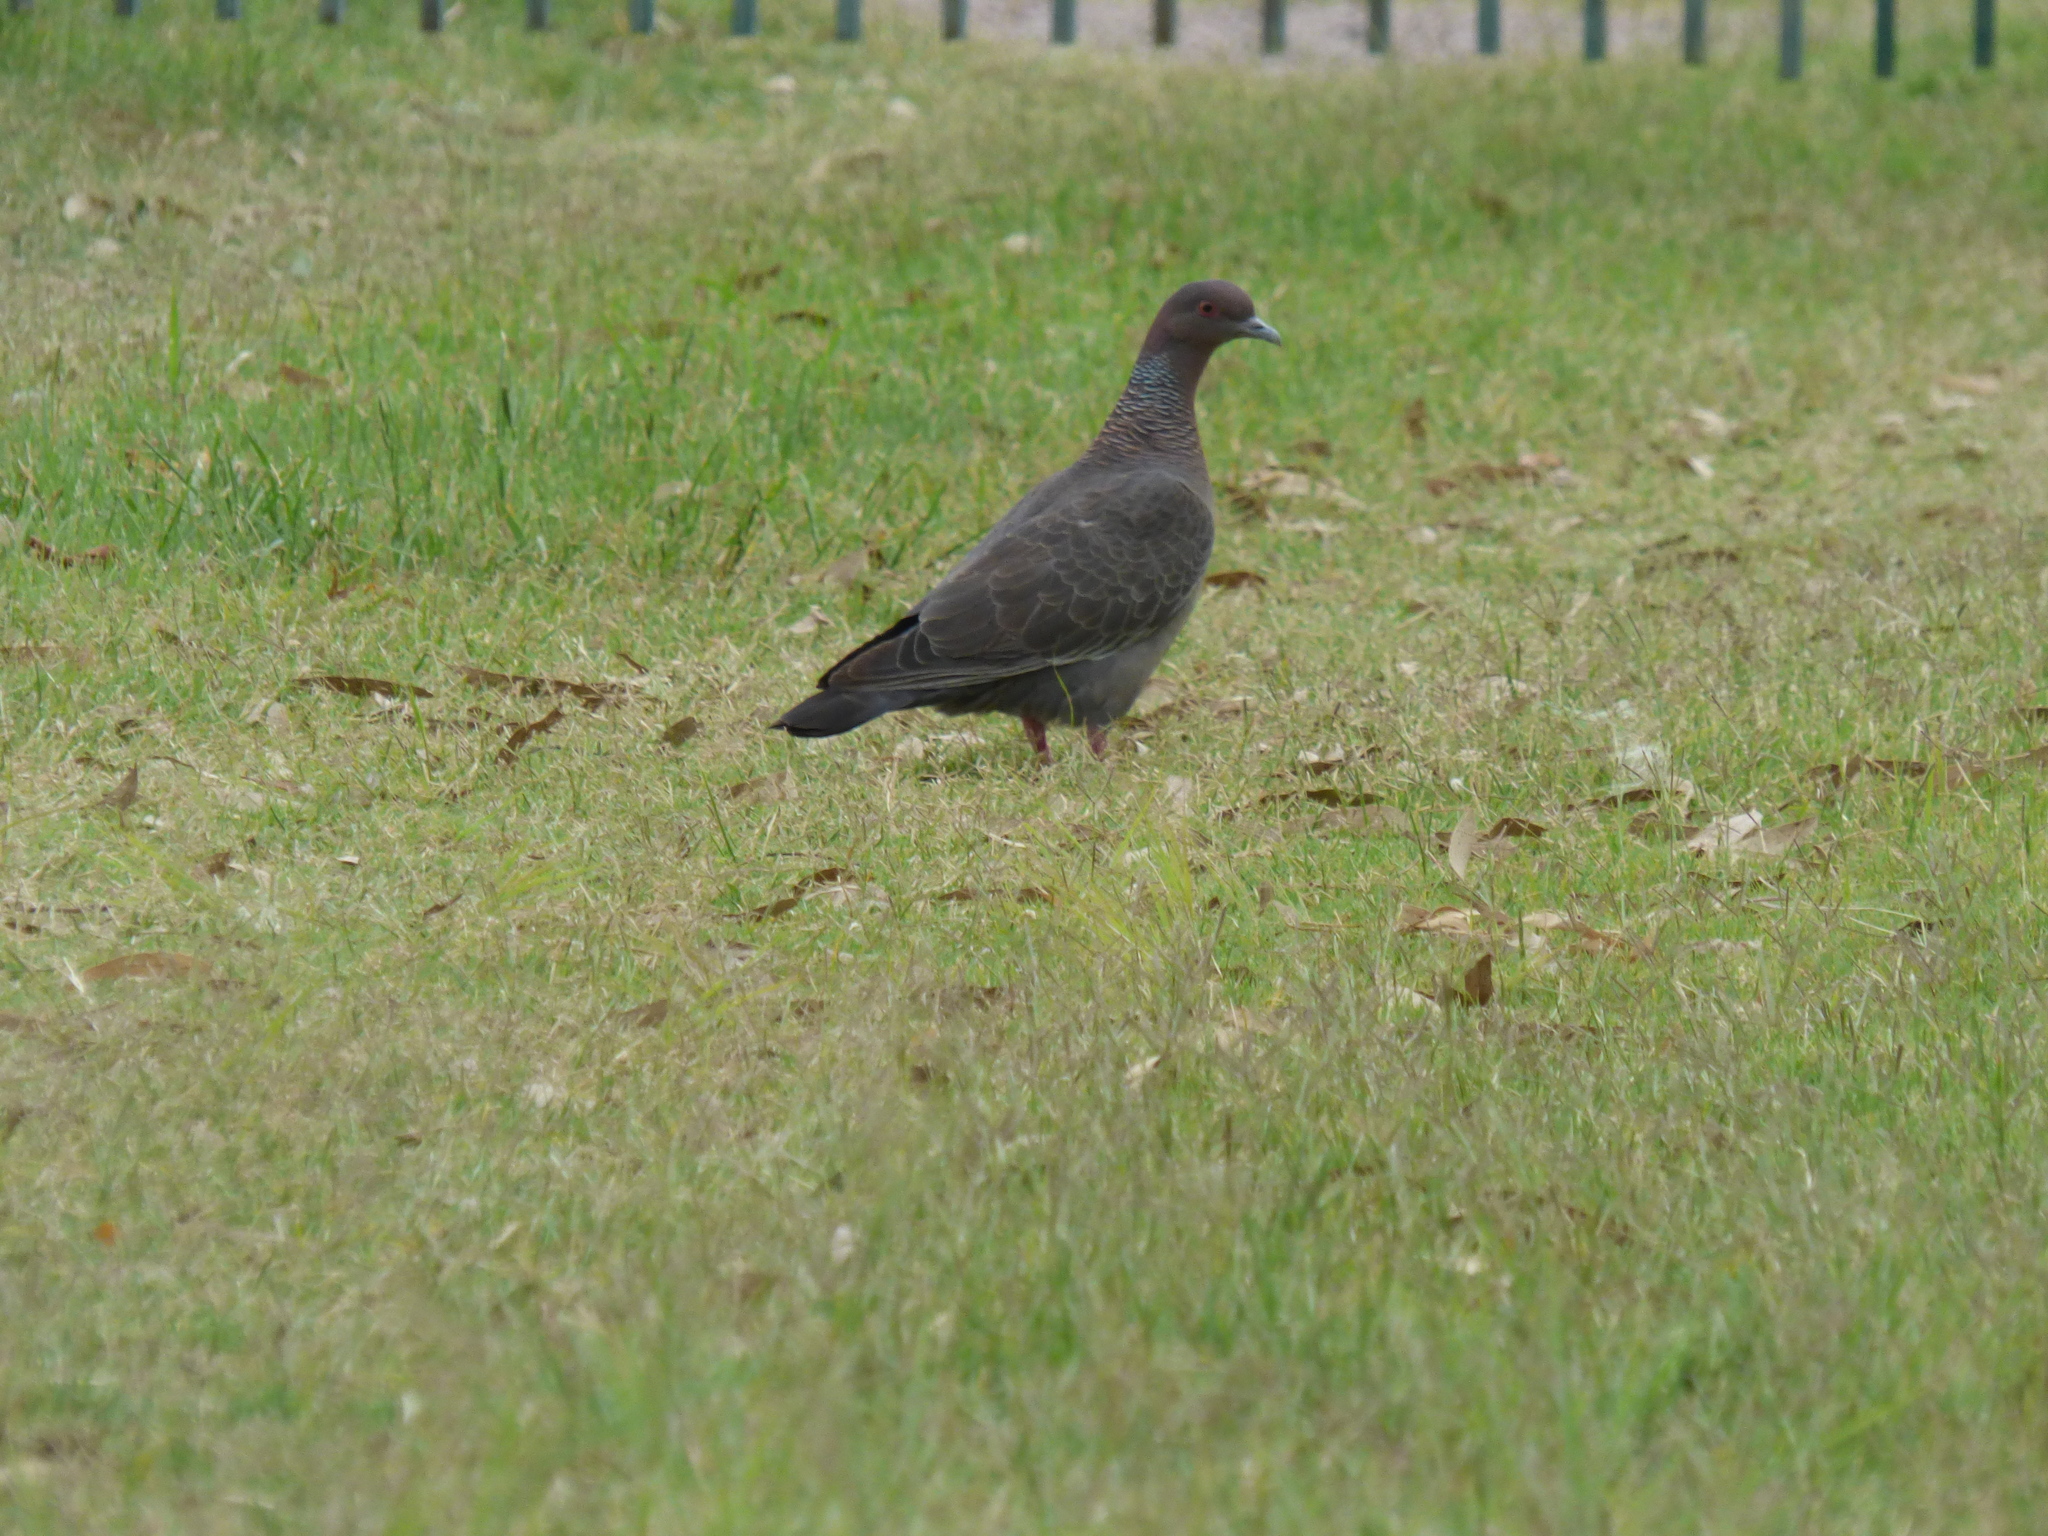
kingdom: Animalia
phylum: Chordata
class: Aves
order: Columbiformes
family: Columbidae
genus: Patagioenas
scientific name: Patagioenas picazuro
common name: Picazuro pigeon
